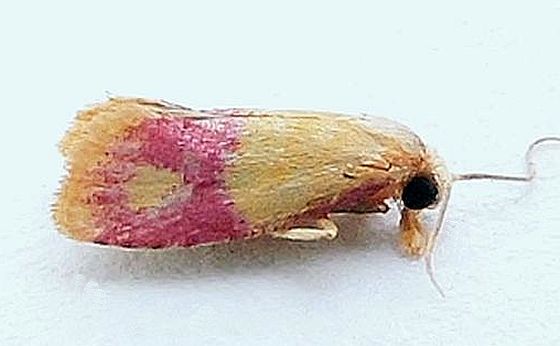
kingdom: Animalia
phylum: Arthropoda
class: Insecta
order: Lepidoptera
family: Tortricidae
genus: Conchylis
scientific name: Conchylis oenotherana
